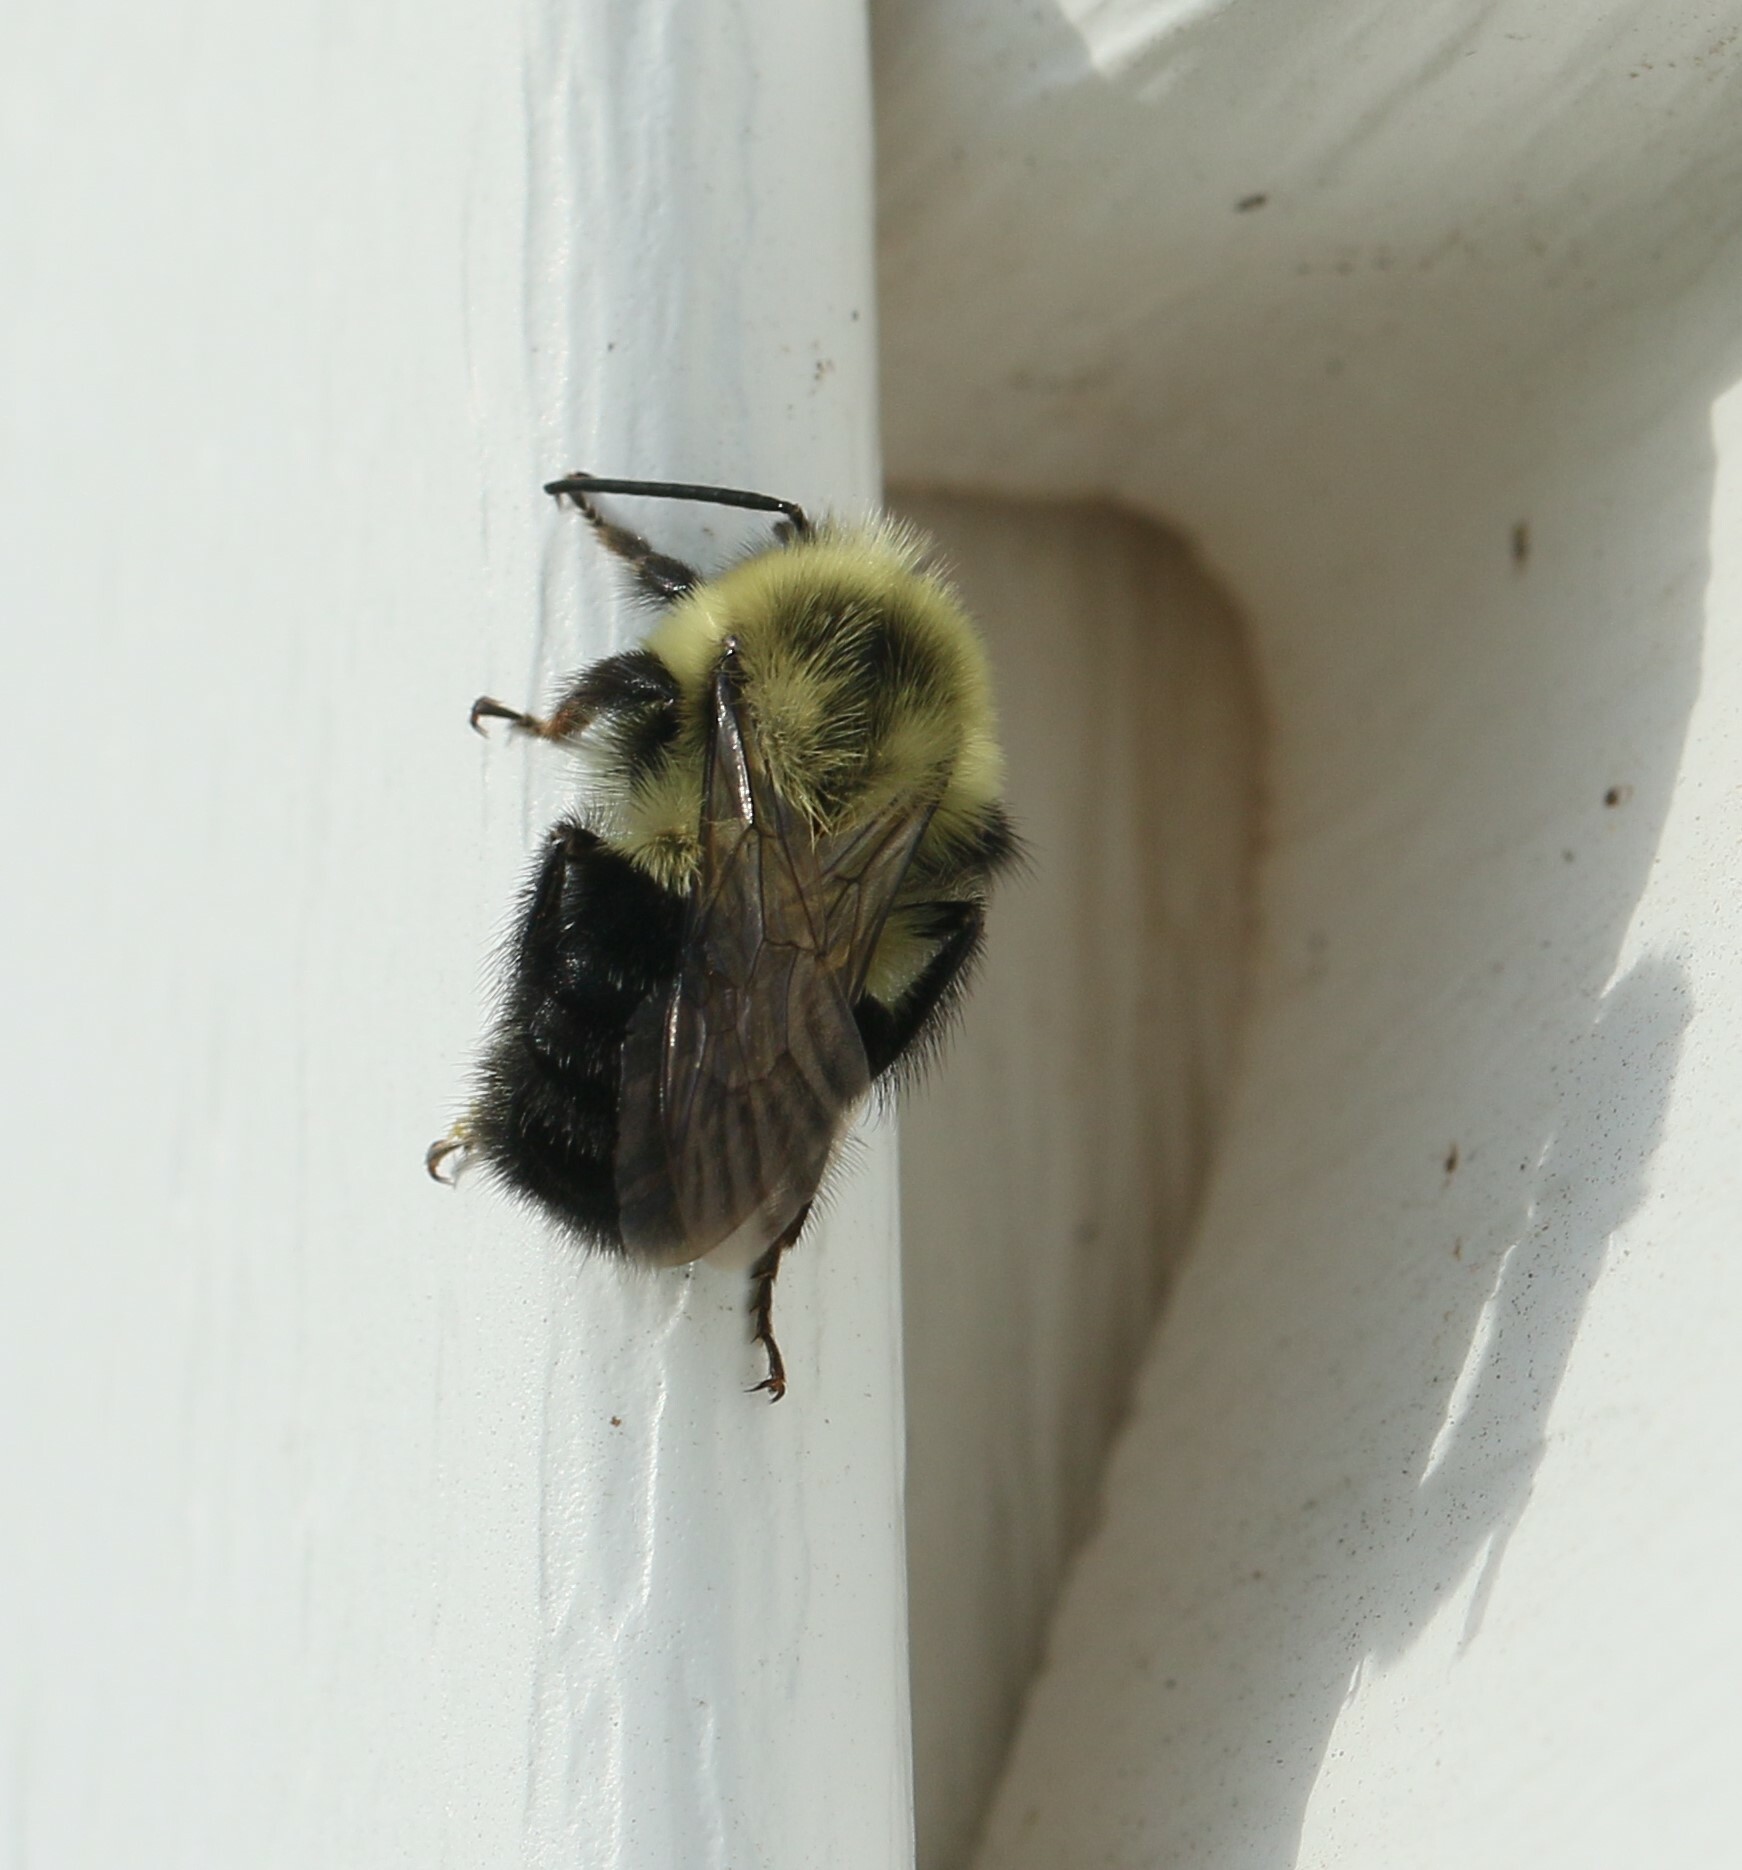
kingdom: Animalia
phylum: Arthropoda
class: Insecta
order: Hymenoptera
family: Apidae
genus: Bombus
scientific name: Bombus impatiens
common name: Common eastern bumble bee
